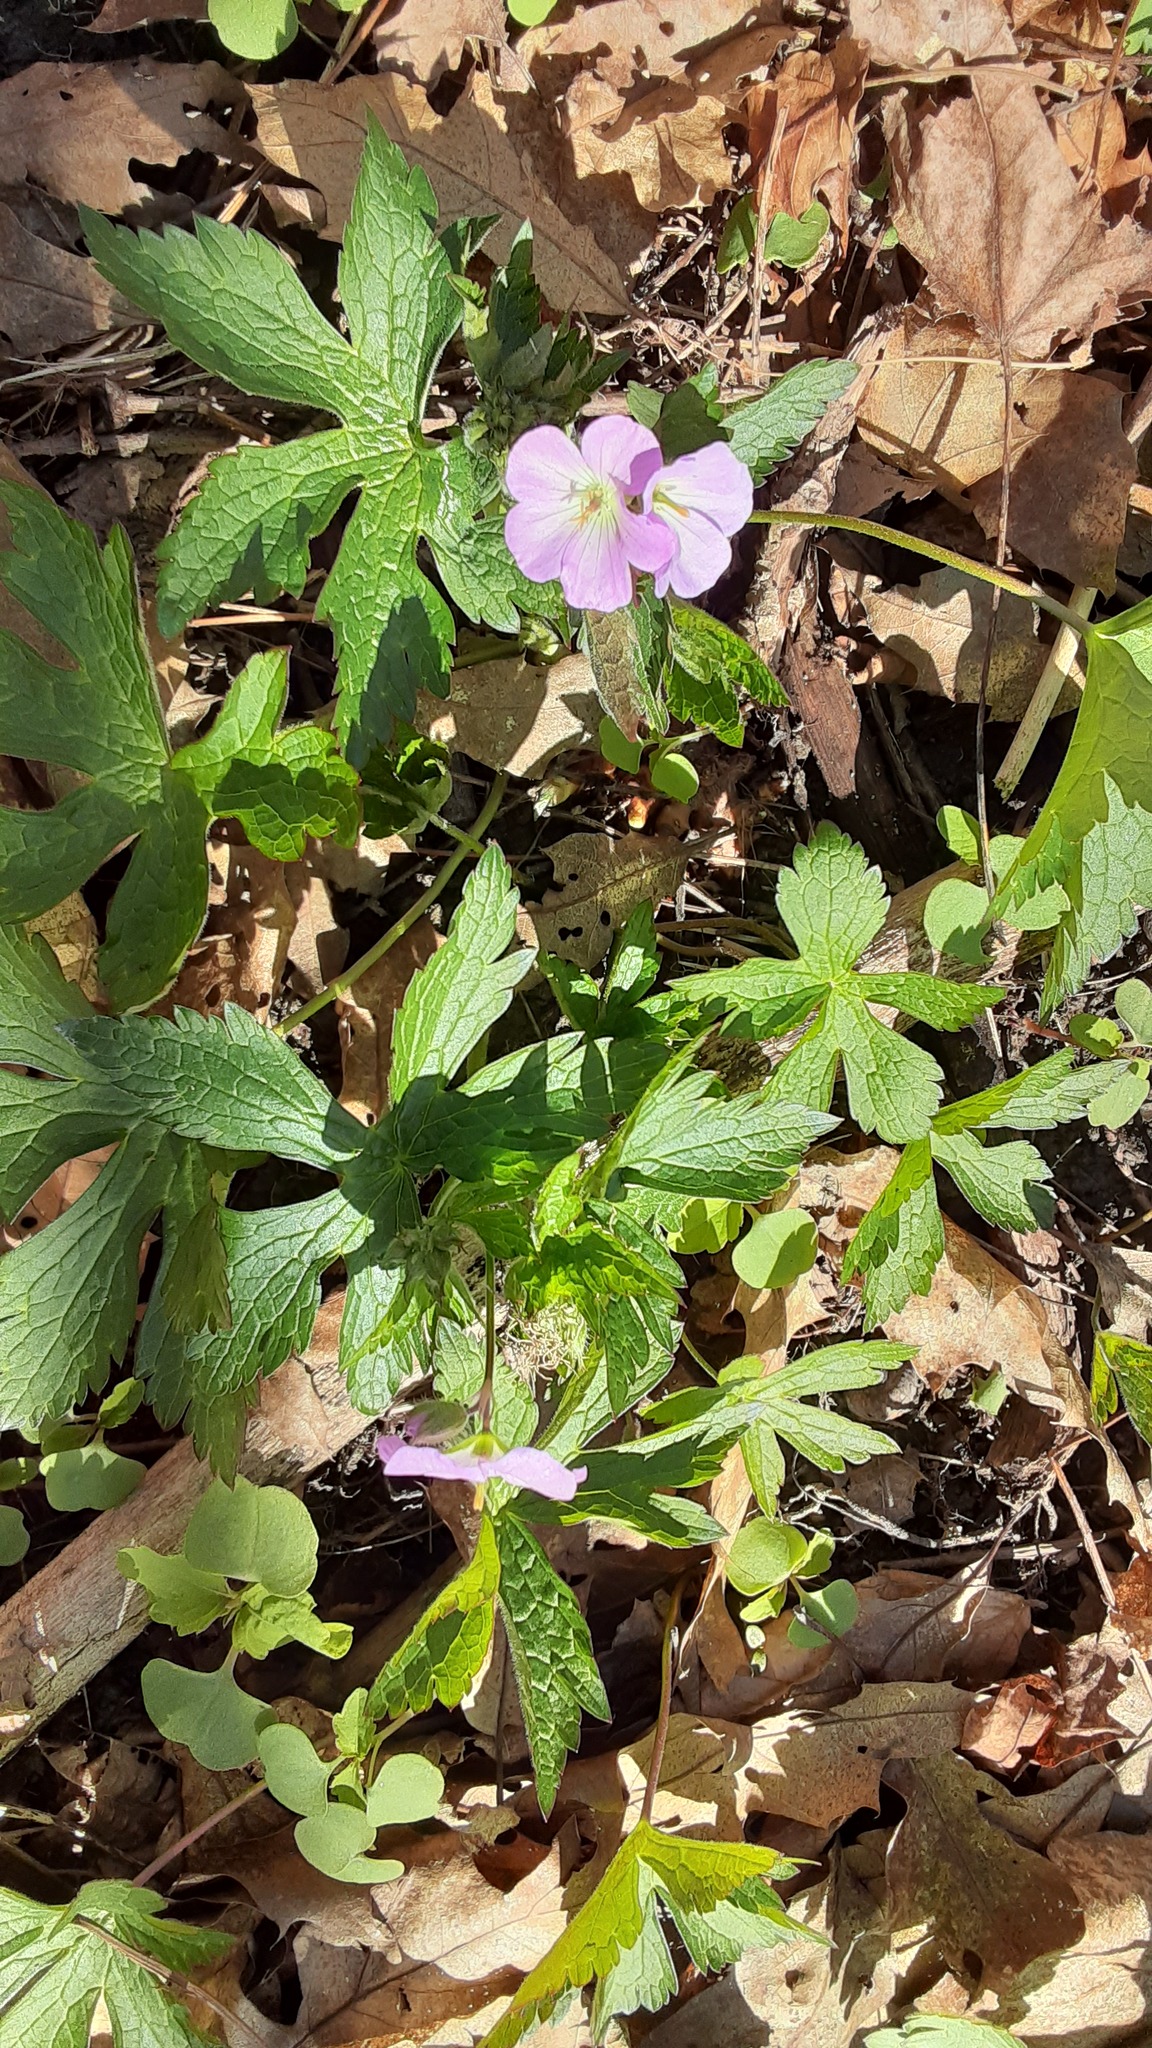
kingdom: Plantae
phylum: Tracheophyta
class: Magnoliopsida
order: Geraniales
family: Geraniaceae
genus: Geranium
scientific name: Geranium maculatum
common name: Spotted geranium
